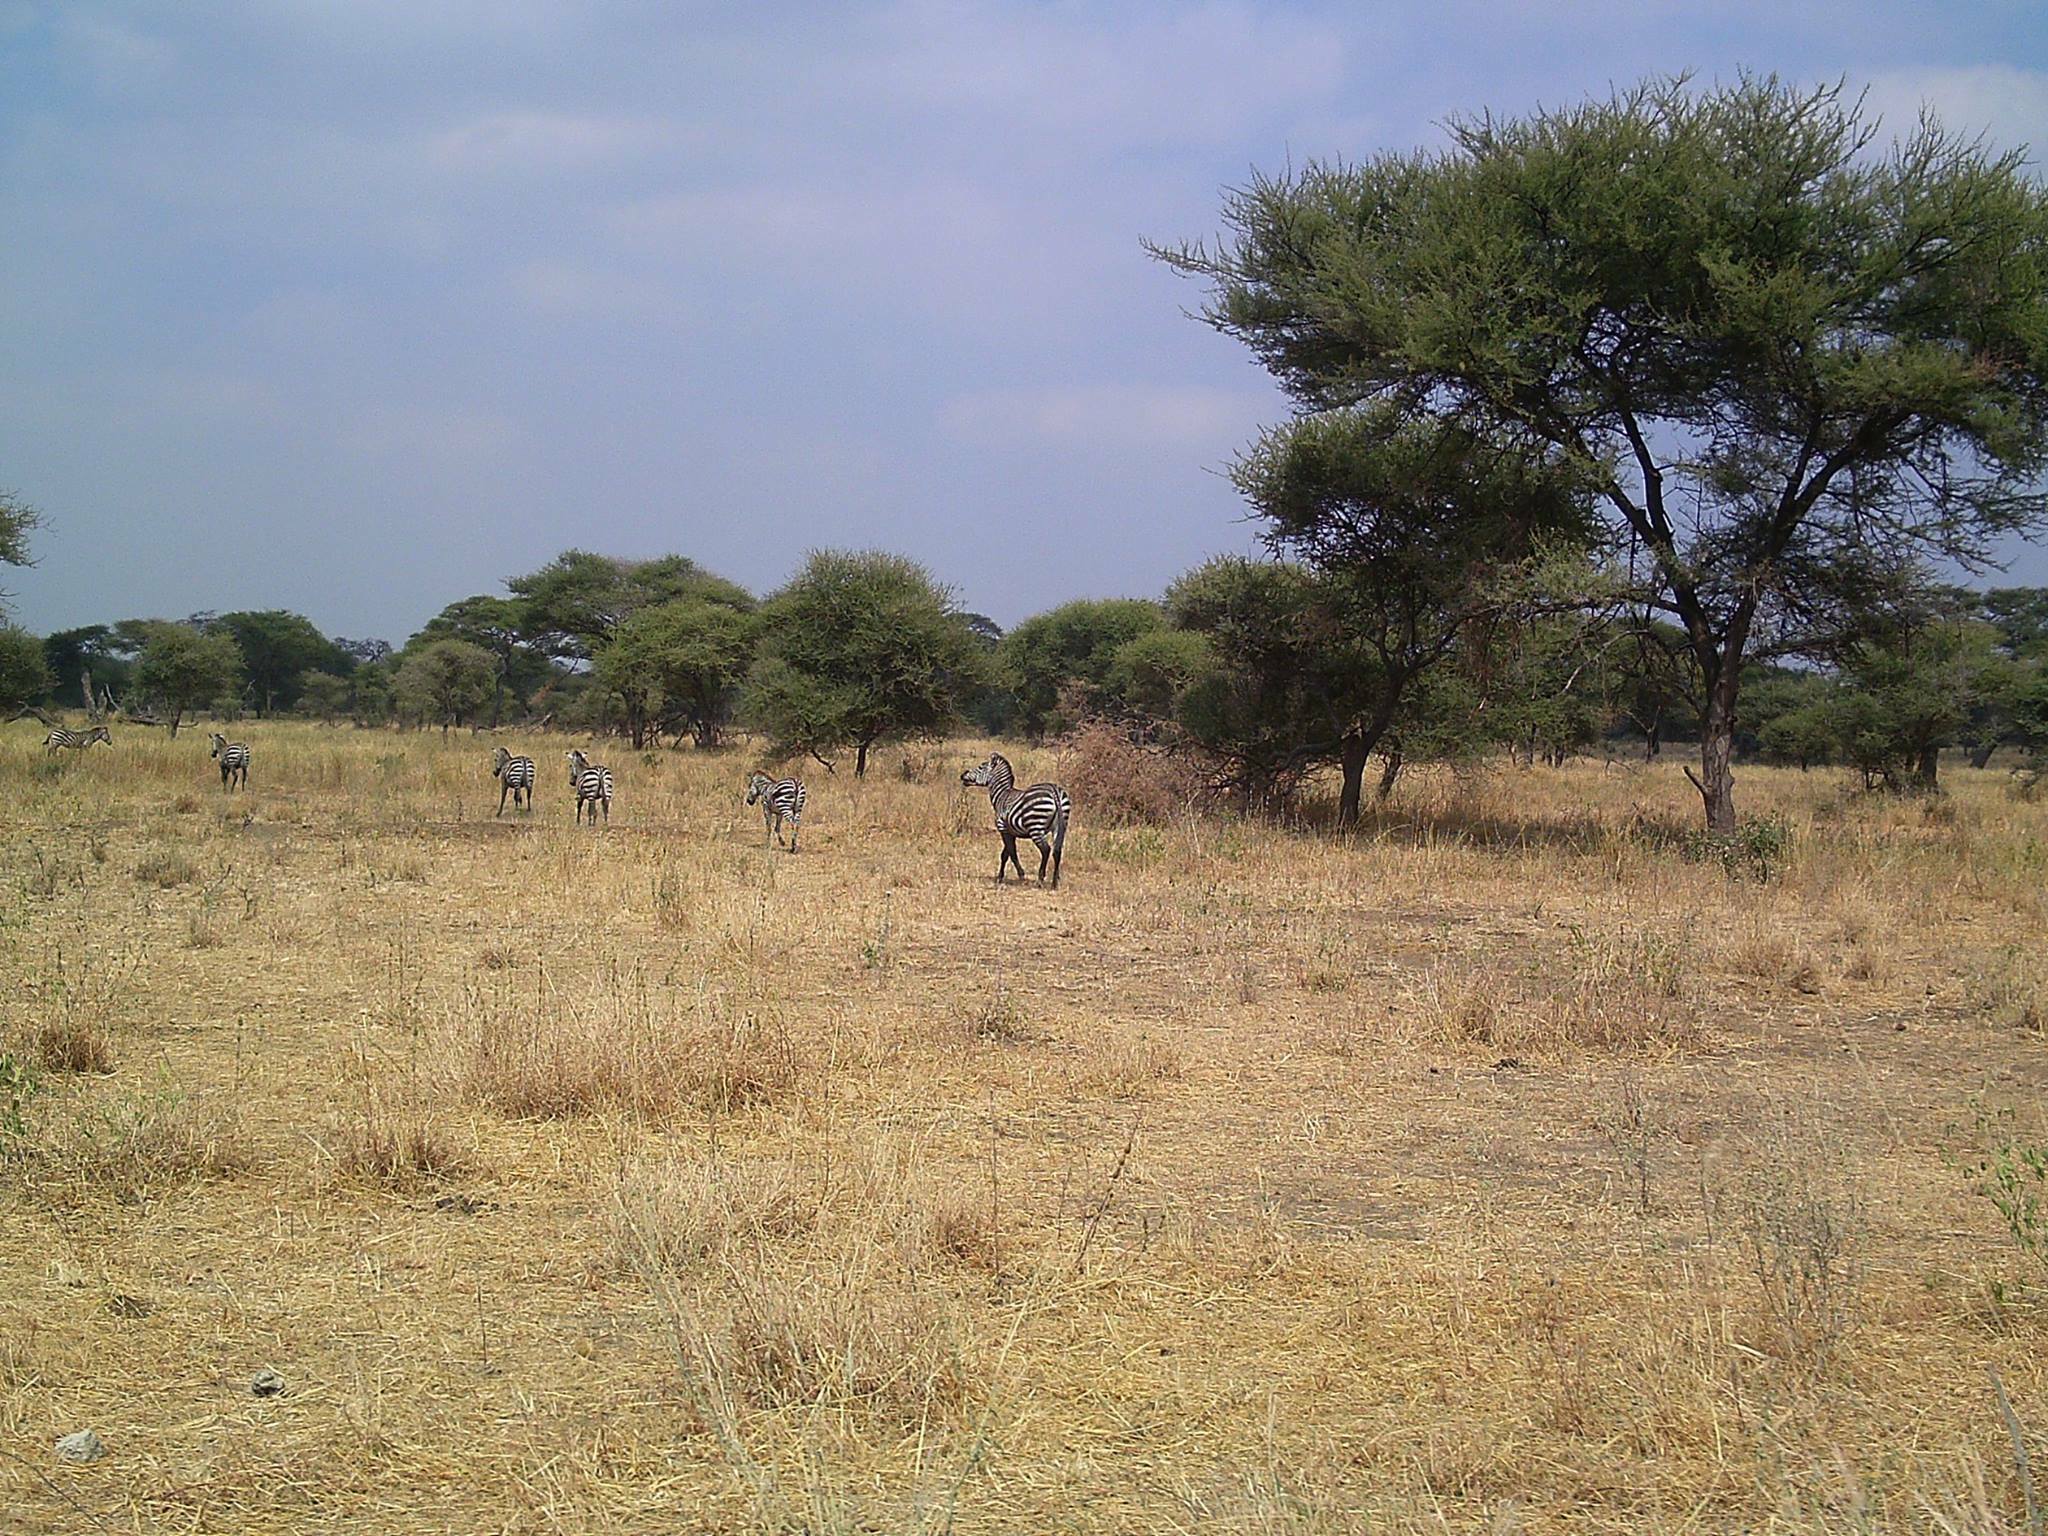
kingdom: Animalia
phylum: Chordata
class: Mammalia
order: Perissodactyla
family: Equidae
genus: Equus
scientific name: Equus quagga
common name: Plains zebra
